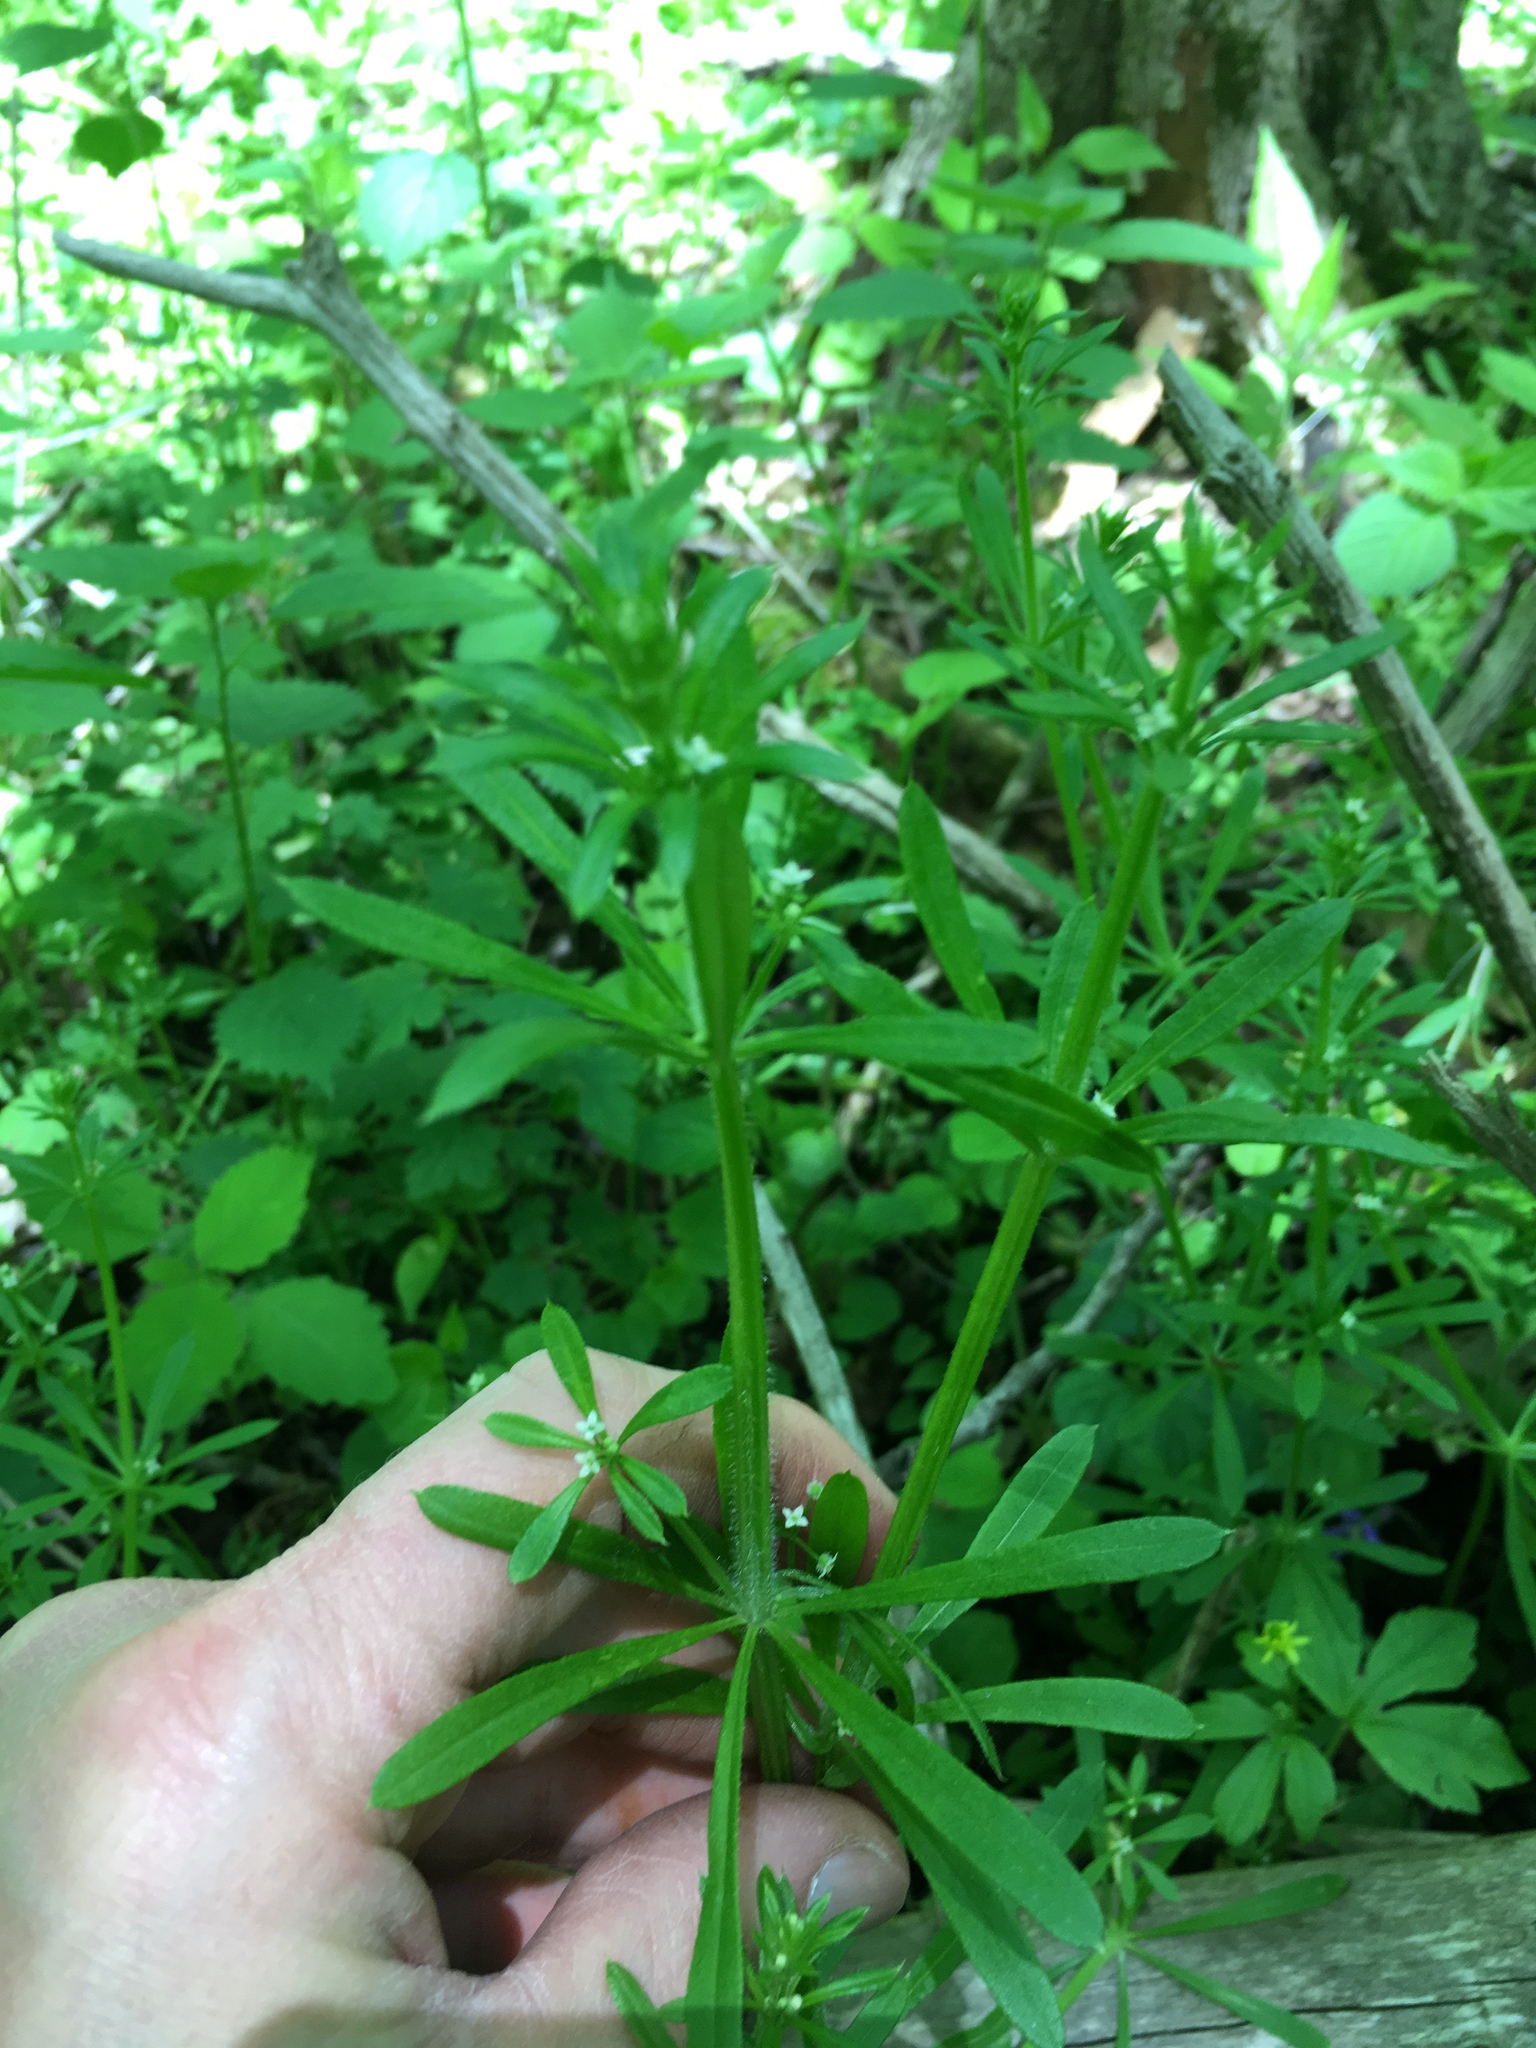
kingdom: Plantae
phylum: Tracheophyta
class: Magnoliopsida
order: Gentianales
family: Rubiaceae
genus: Galium
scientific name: Galium aparine
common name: Cleavers
